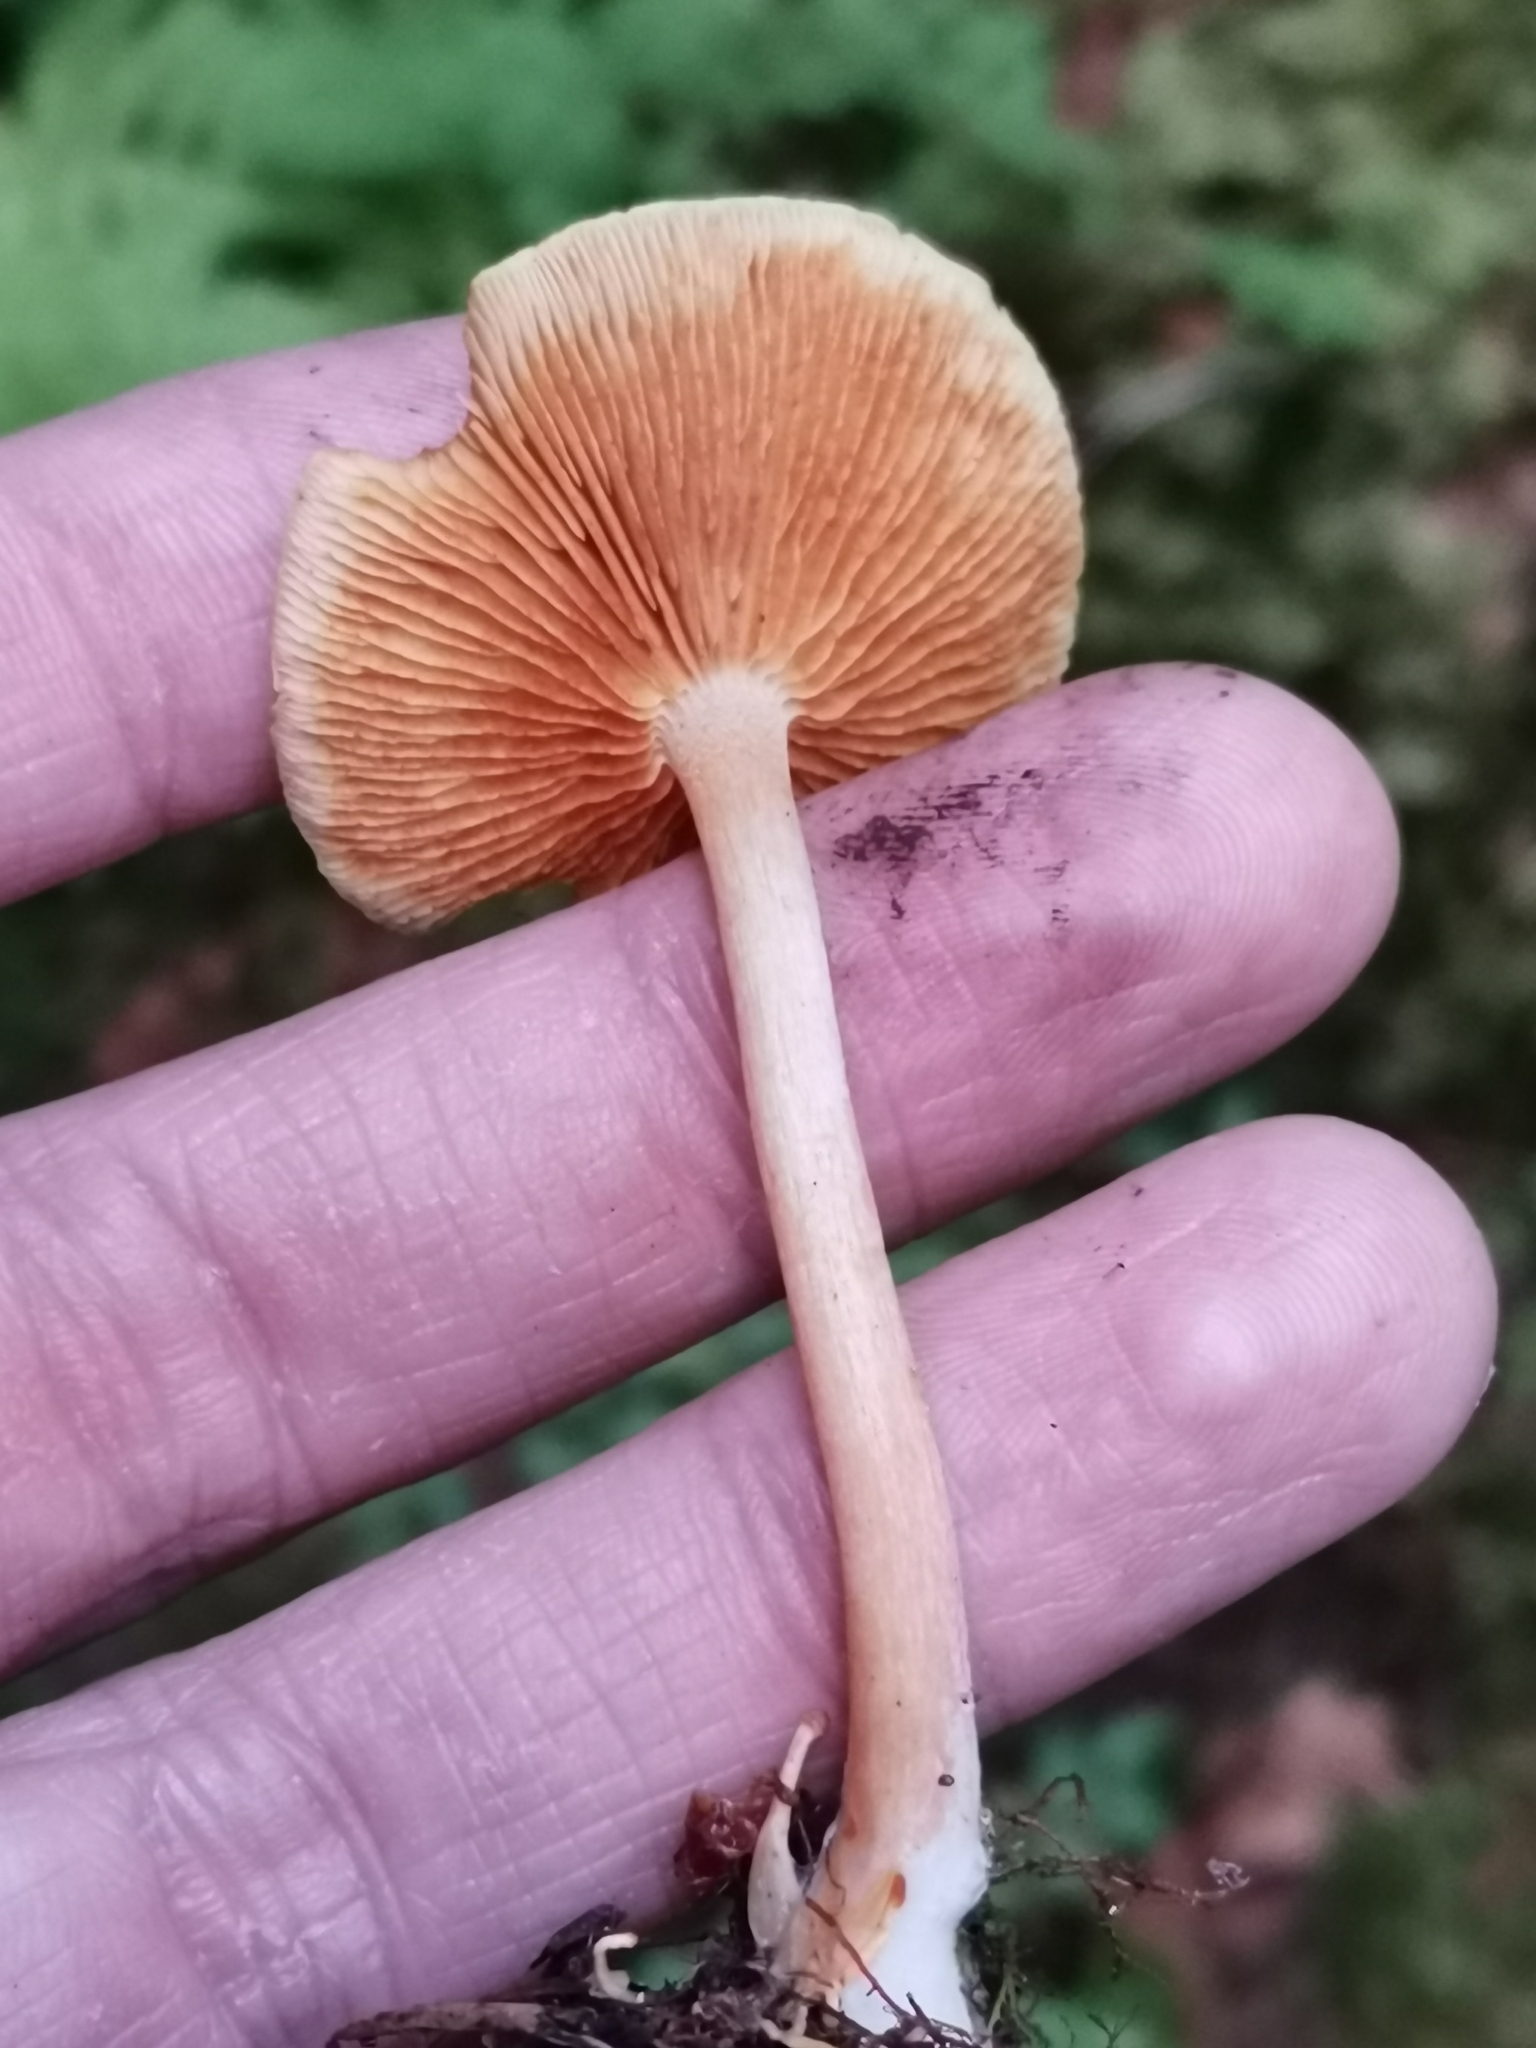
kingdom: Fungi
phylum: Basidiomycota
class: Agaricomycetes
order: Agaricales
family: Hymenogastraceae
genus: Gymnopilus
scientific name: Gymnopilus penetrans
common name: Common rustgill
